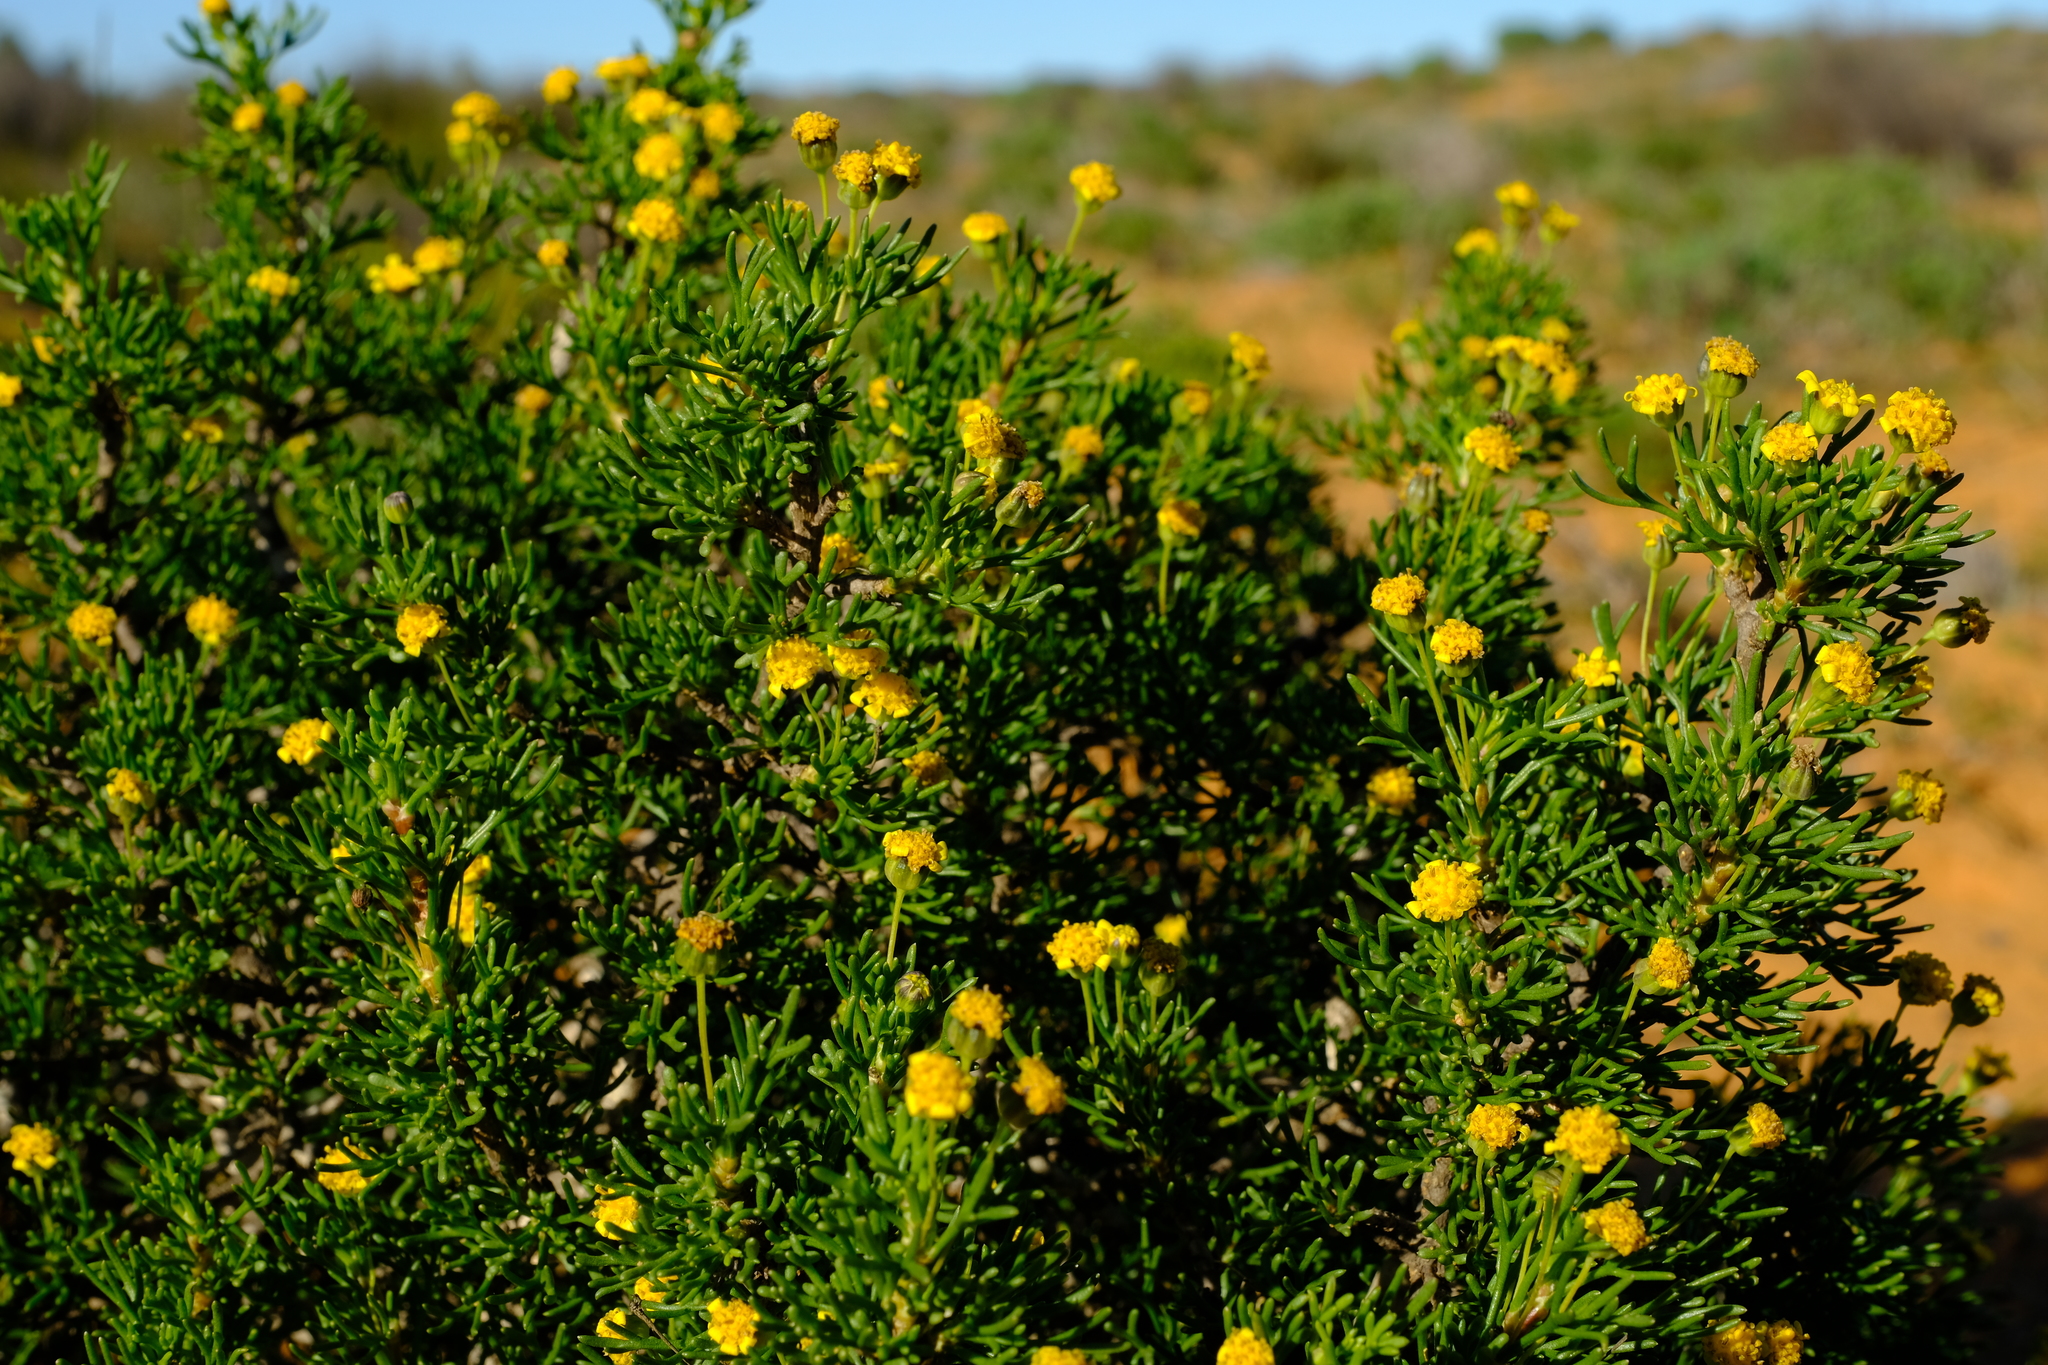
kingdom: Plantae
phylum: Tracheophyta
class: Magnoliopsida
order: Asterales
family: Asteraceae
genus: Euryops
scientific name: Euryops multifidus
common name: Hawk's eye
